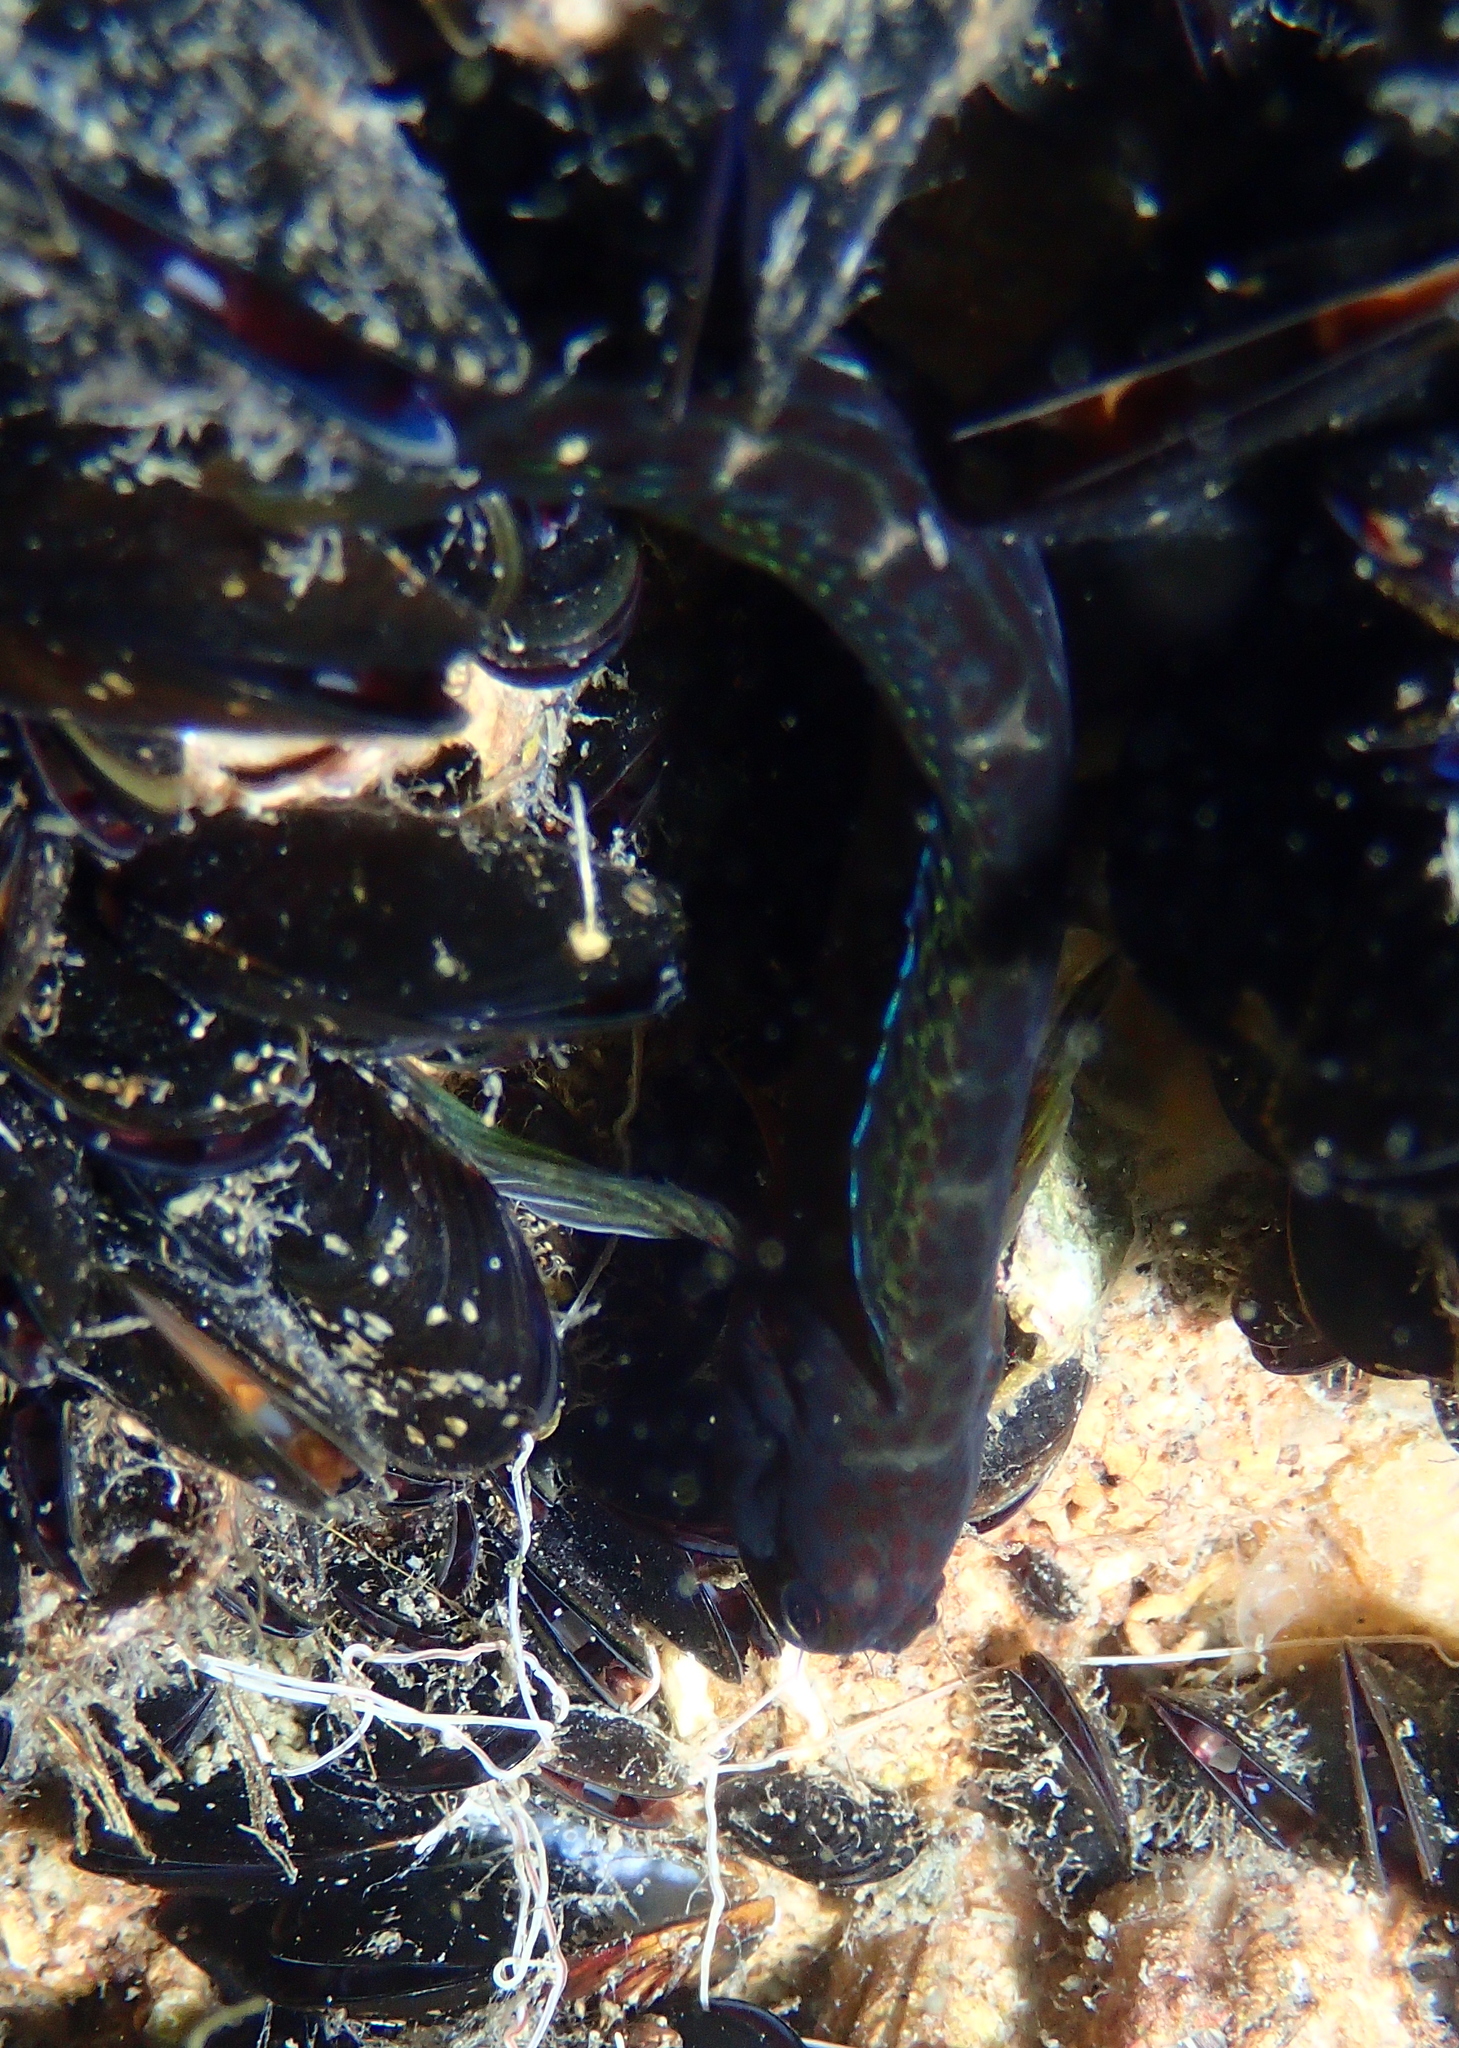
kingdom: Animalia
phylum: Chordata
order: Perciformes
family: Blenniidae
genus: Microlipophrys
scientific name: Microlipophrys canevae
